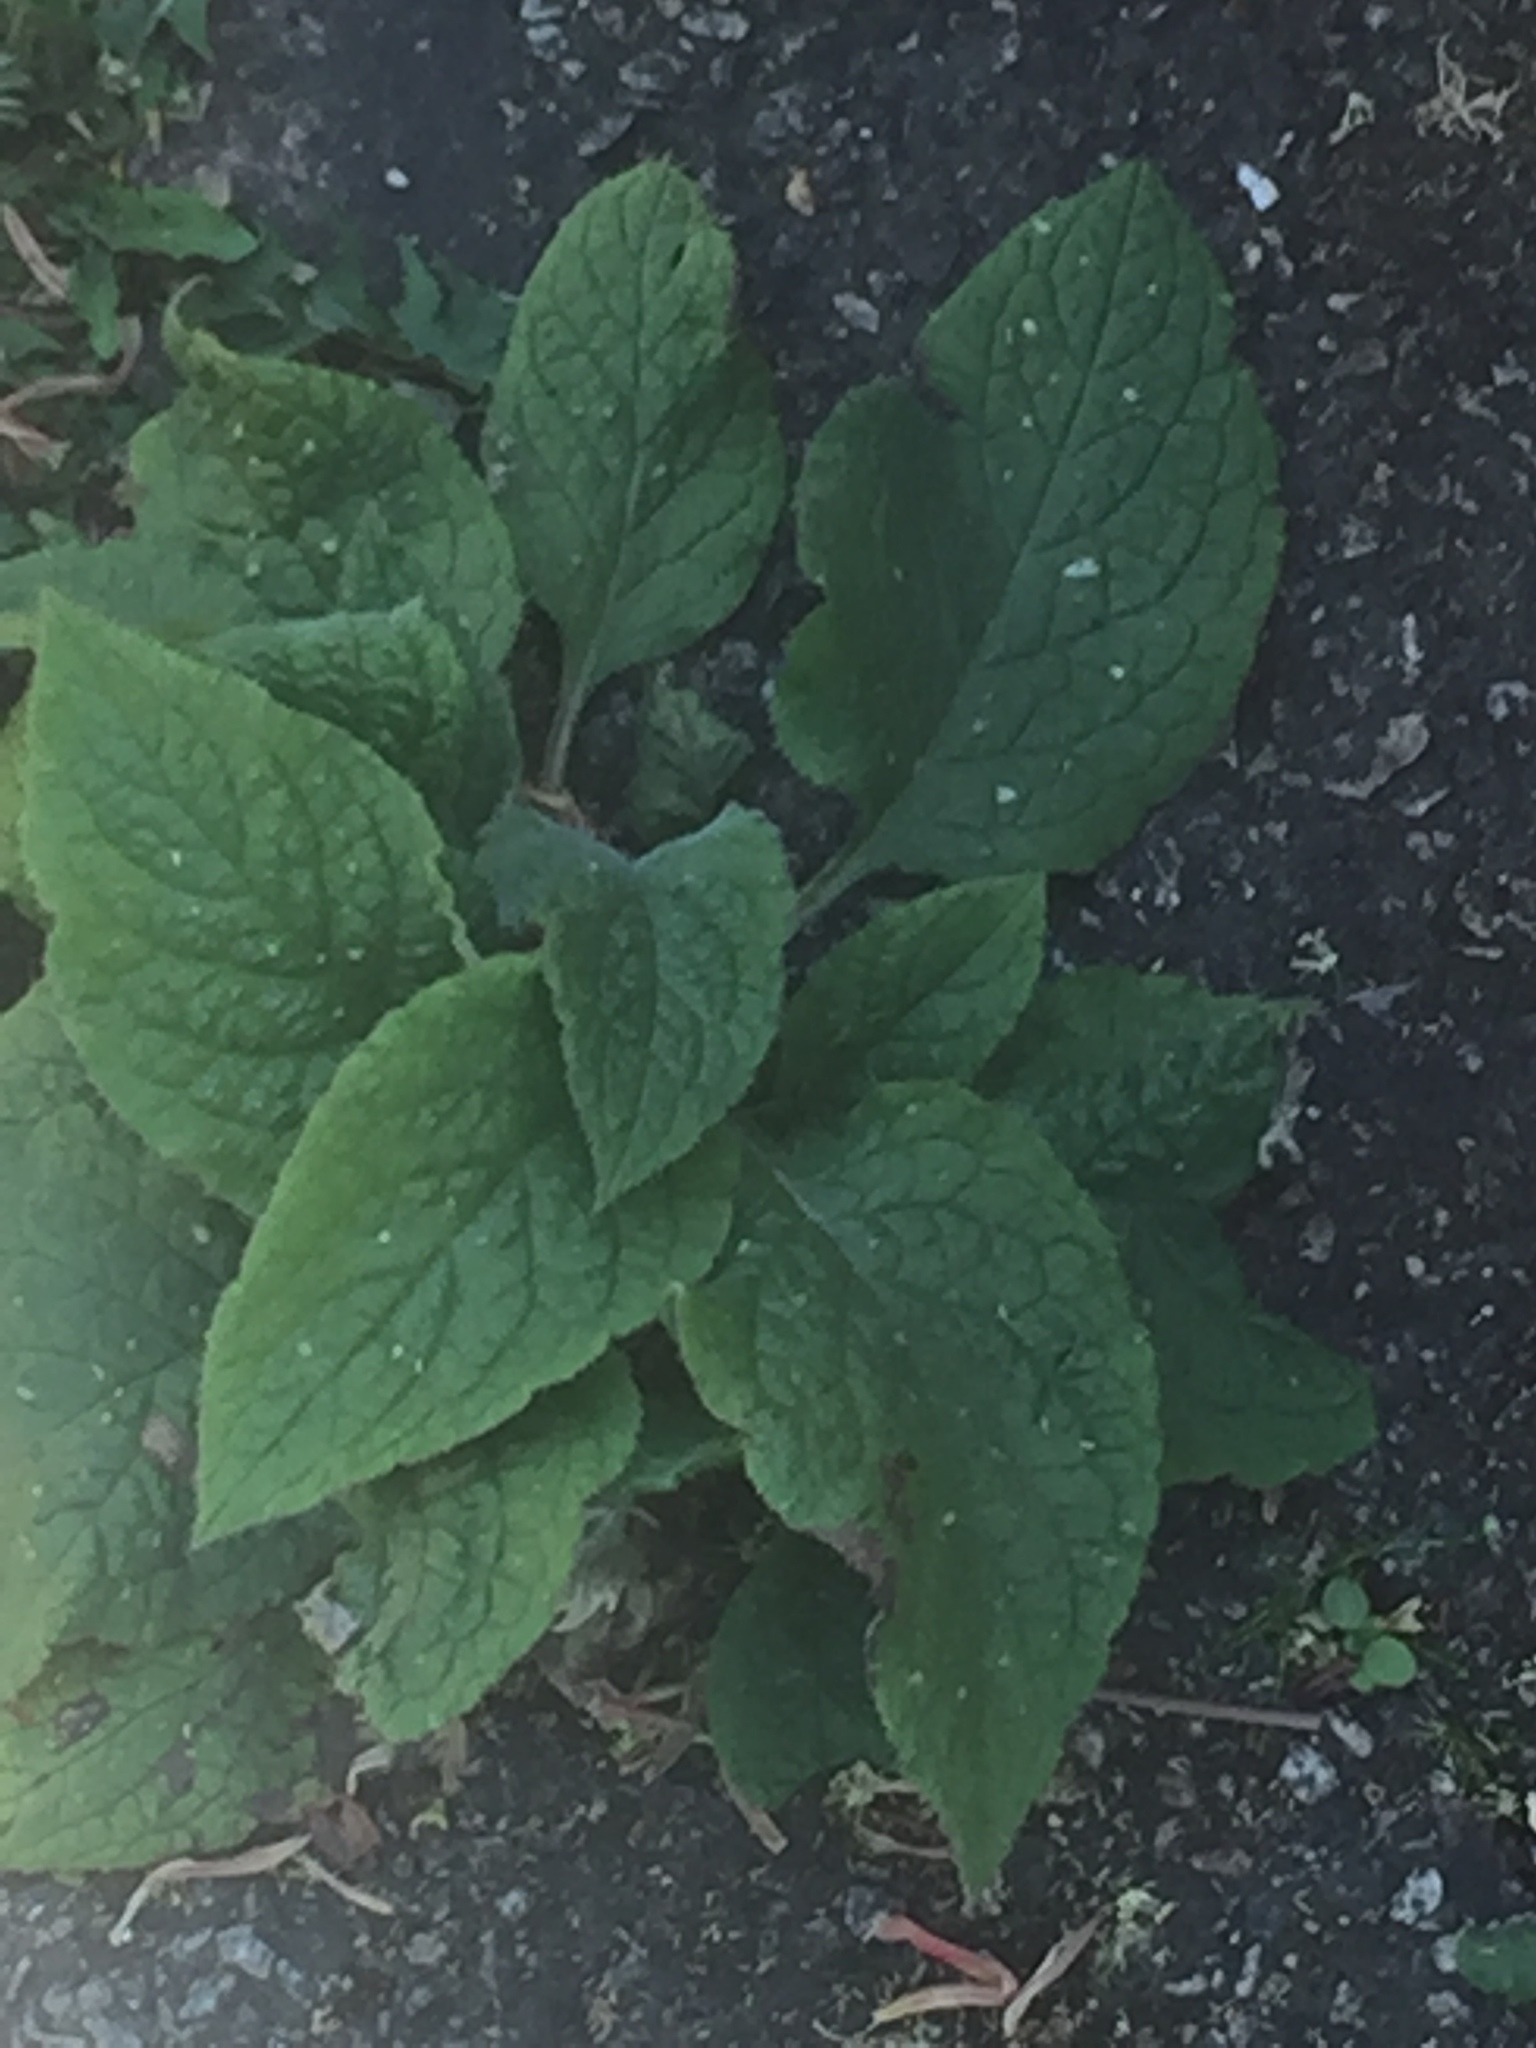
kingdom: Plantae
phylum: Tracheophyta
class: Magnoliopsida
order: Boraginales
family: Boraginaceae
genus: Pentaglottis
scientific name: Pentaglottis sempervirens
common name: Green alkanet
